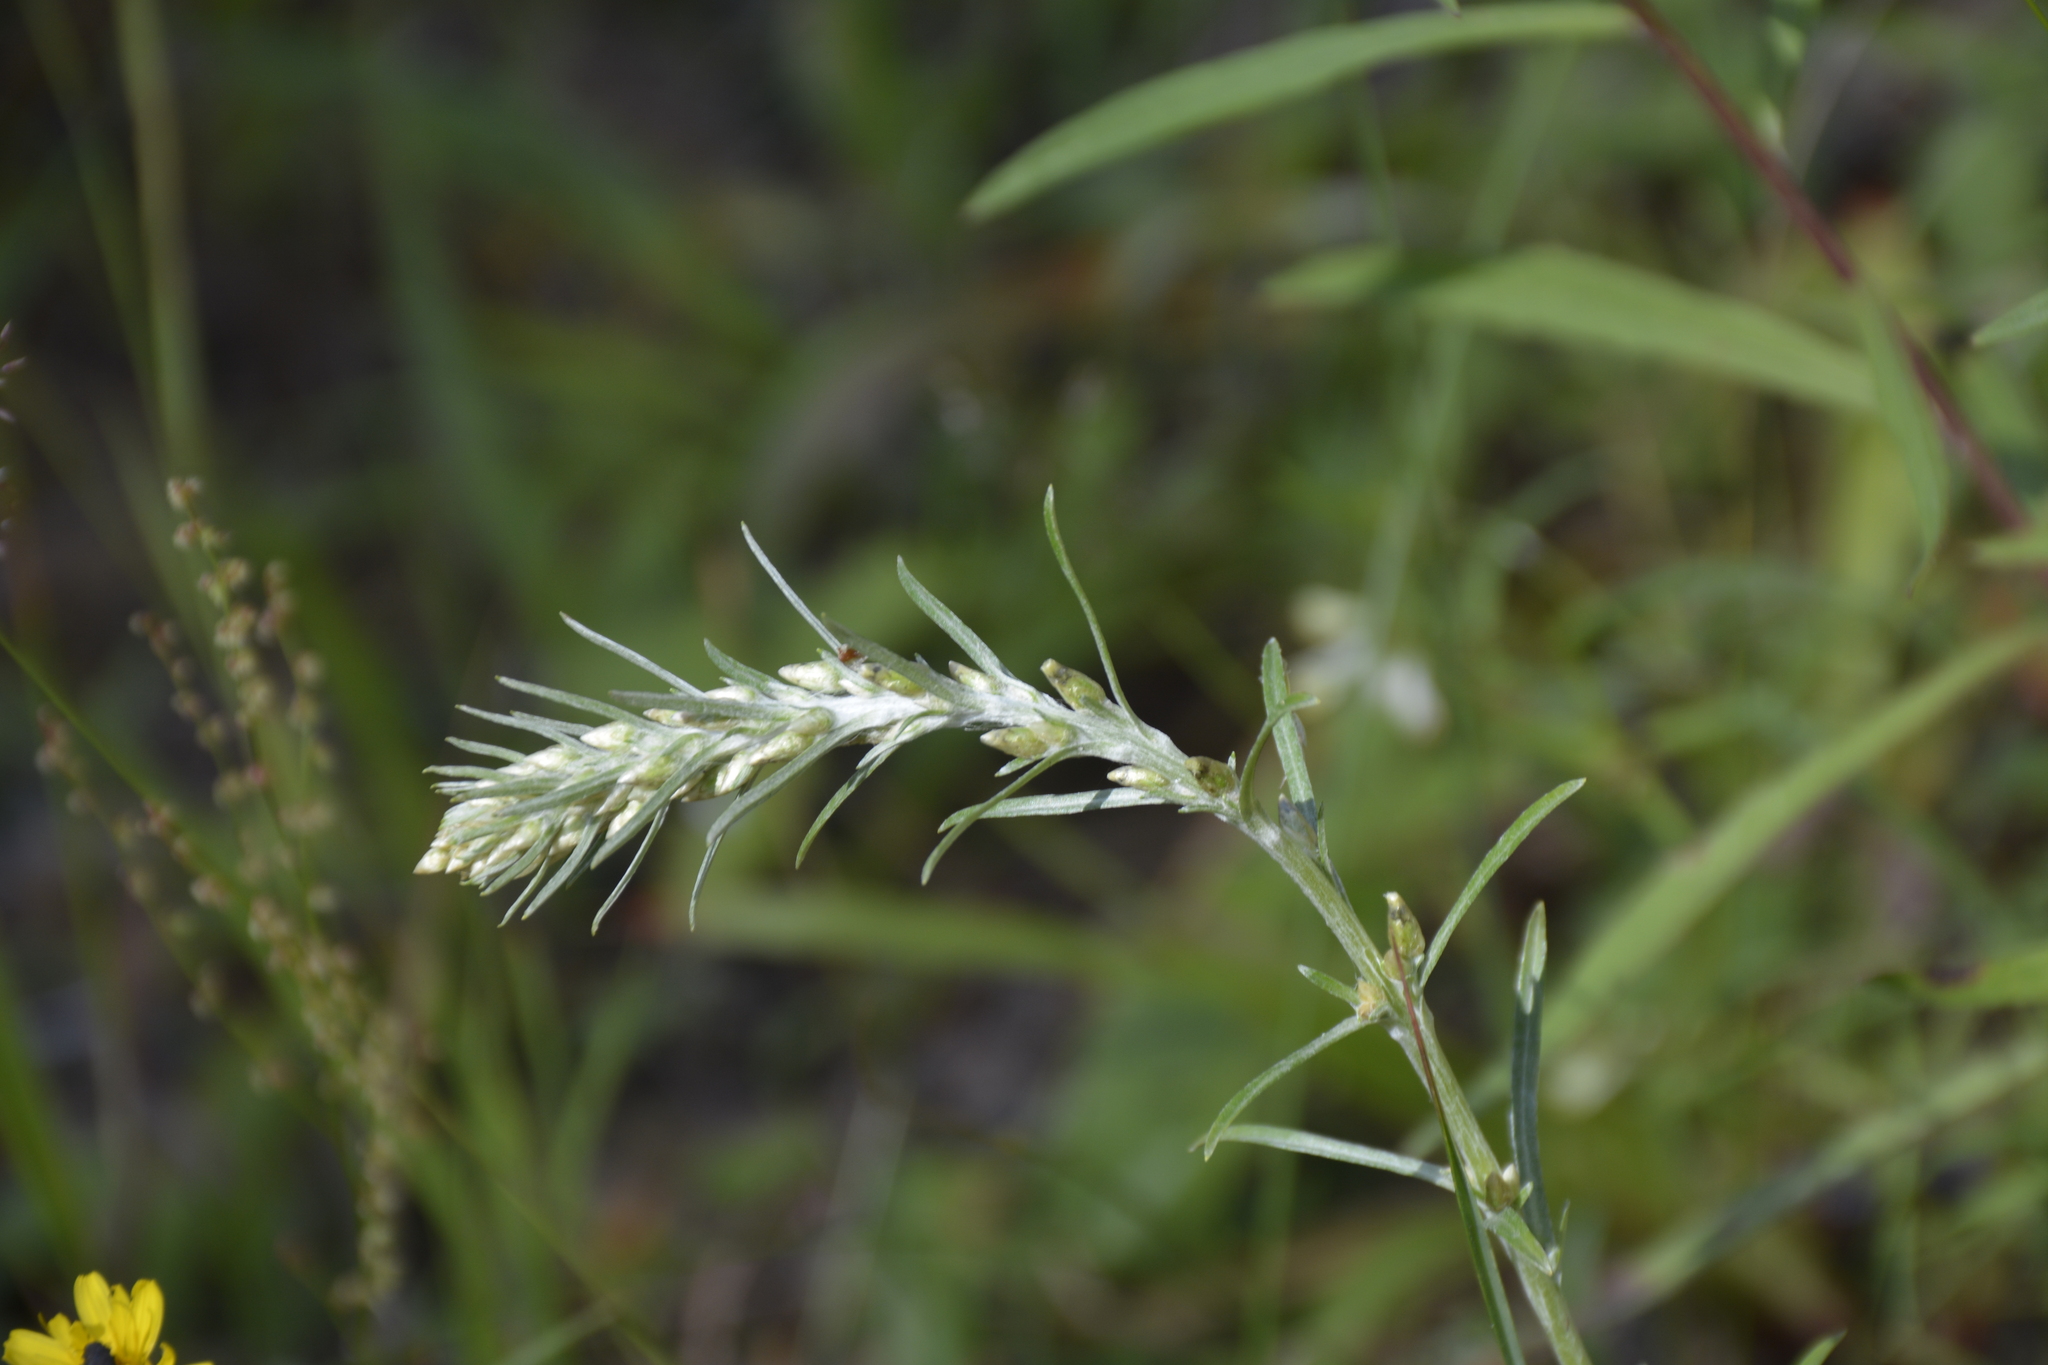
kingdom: Plantae
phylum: Tracheophyta
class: Magnoliopsida
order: Asterales
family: Asteraceae
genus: Omalotheca
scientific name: Omalotheca sylvatica
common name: Heath cudweed
